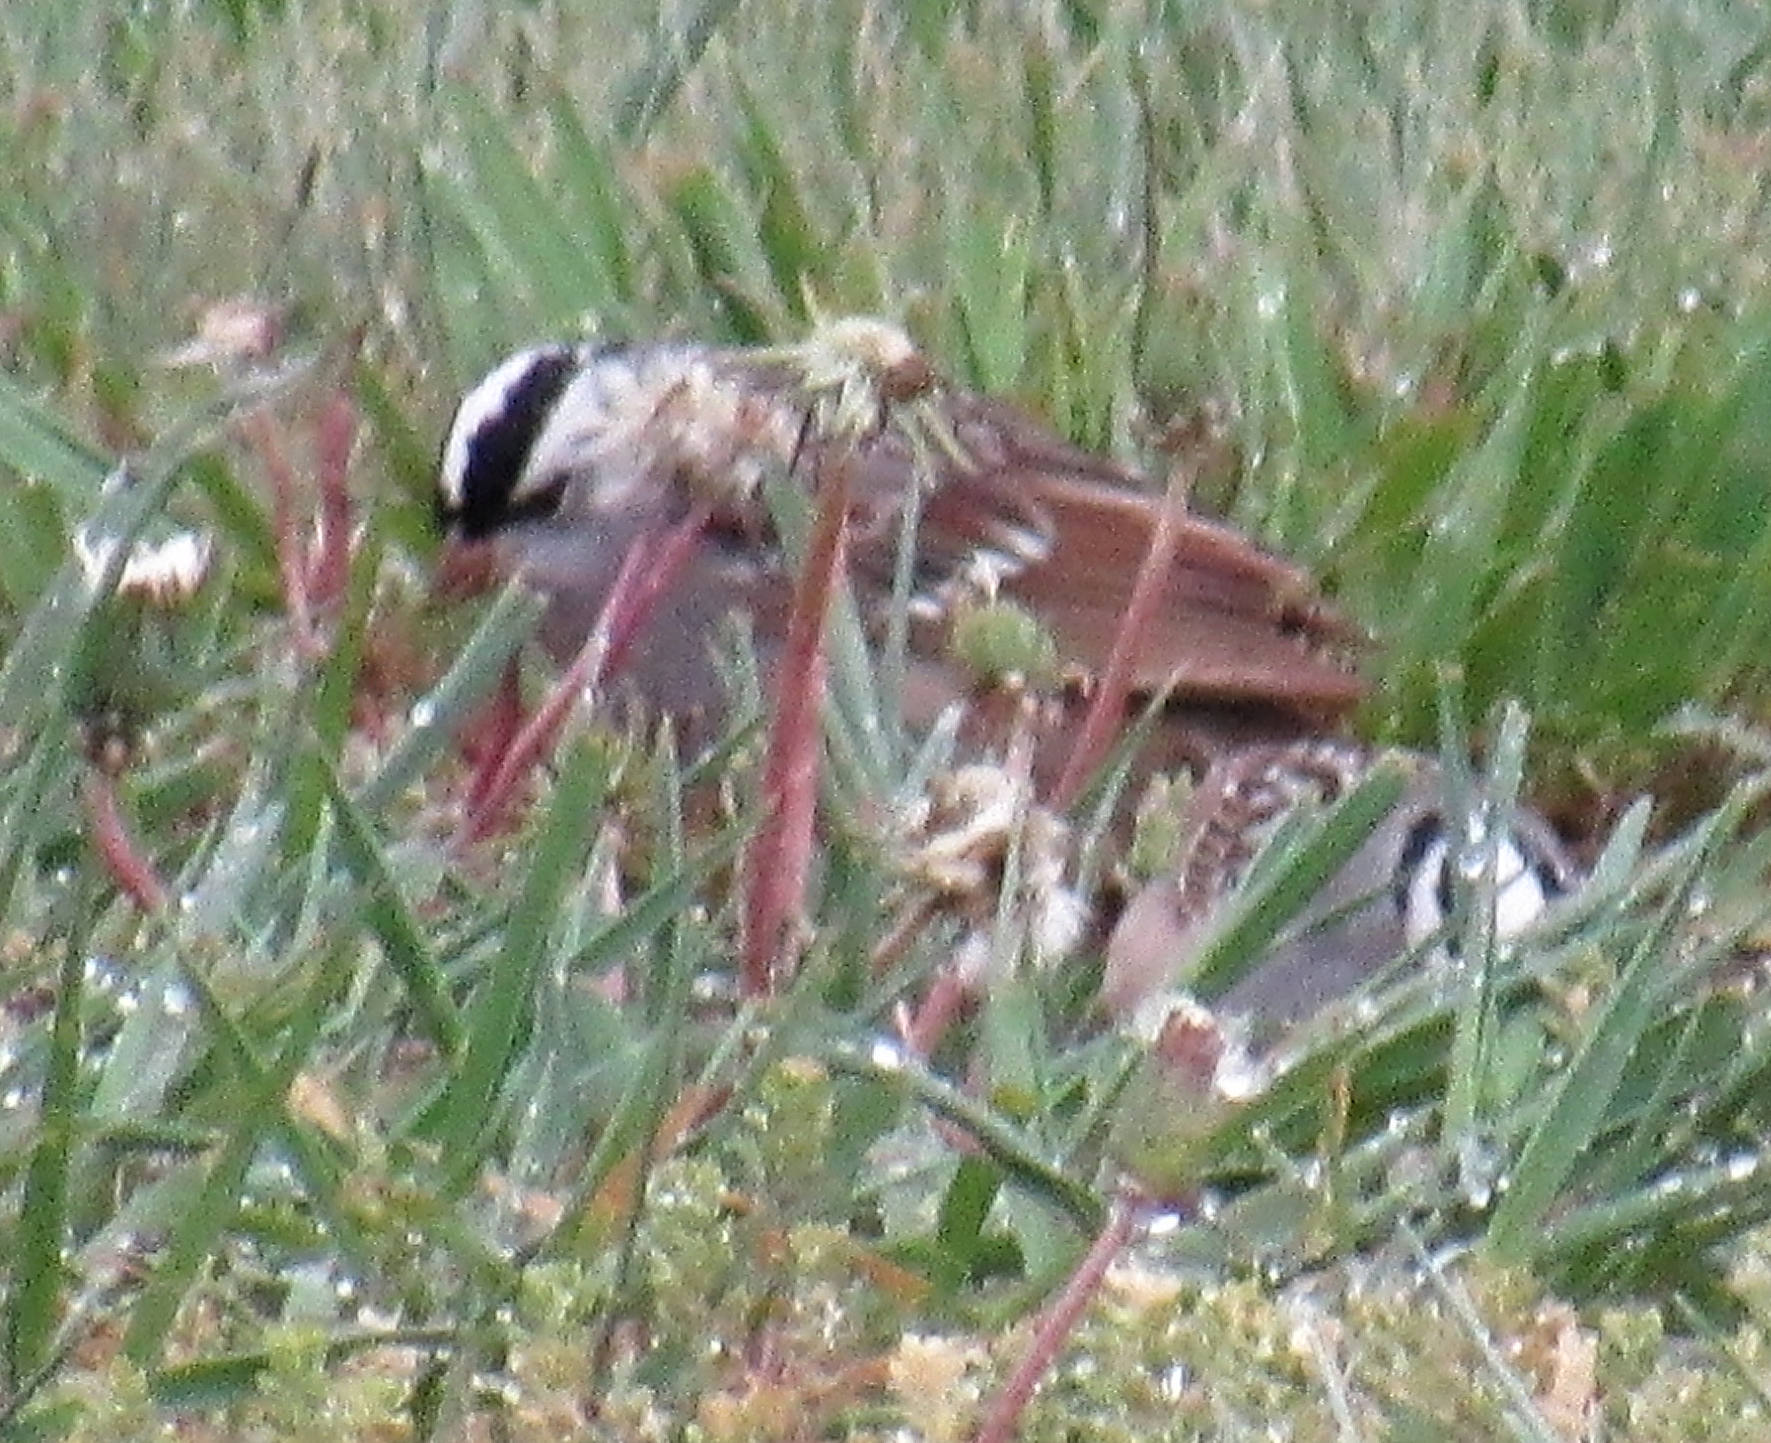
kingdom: Animalia
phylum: Chordata
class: Aves
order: Passeriformes
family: Passerellidae
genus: Zonotrichia
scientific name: Zonotrichia leucophrys
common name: White-crowned sparrow
